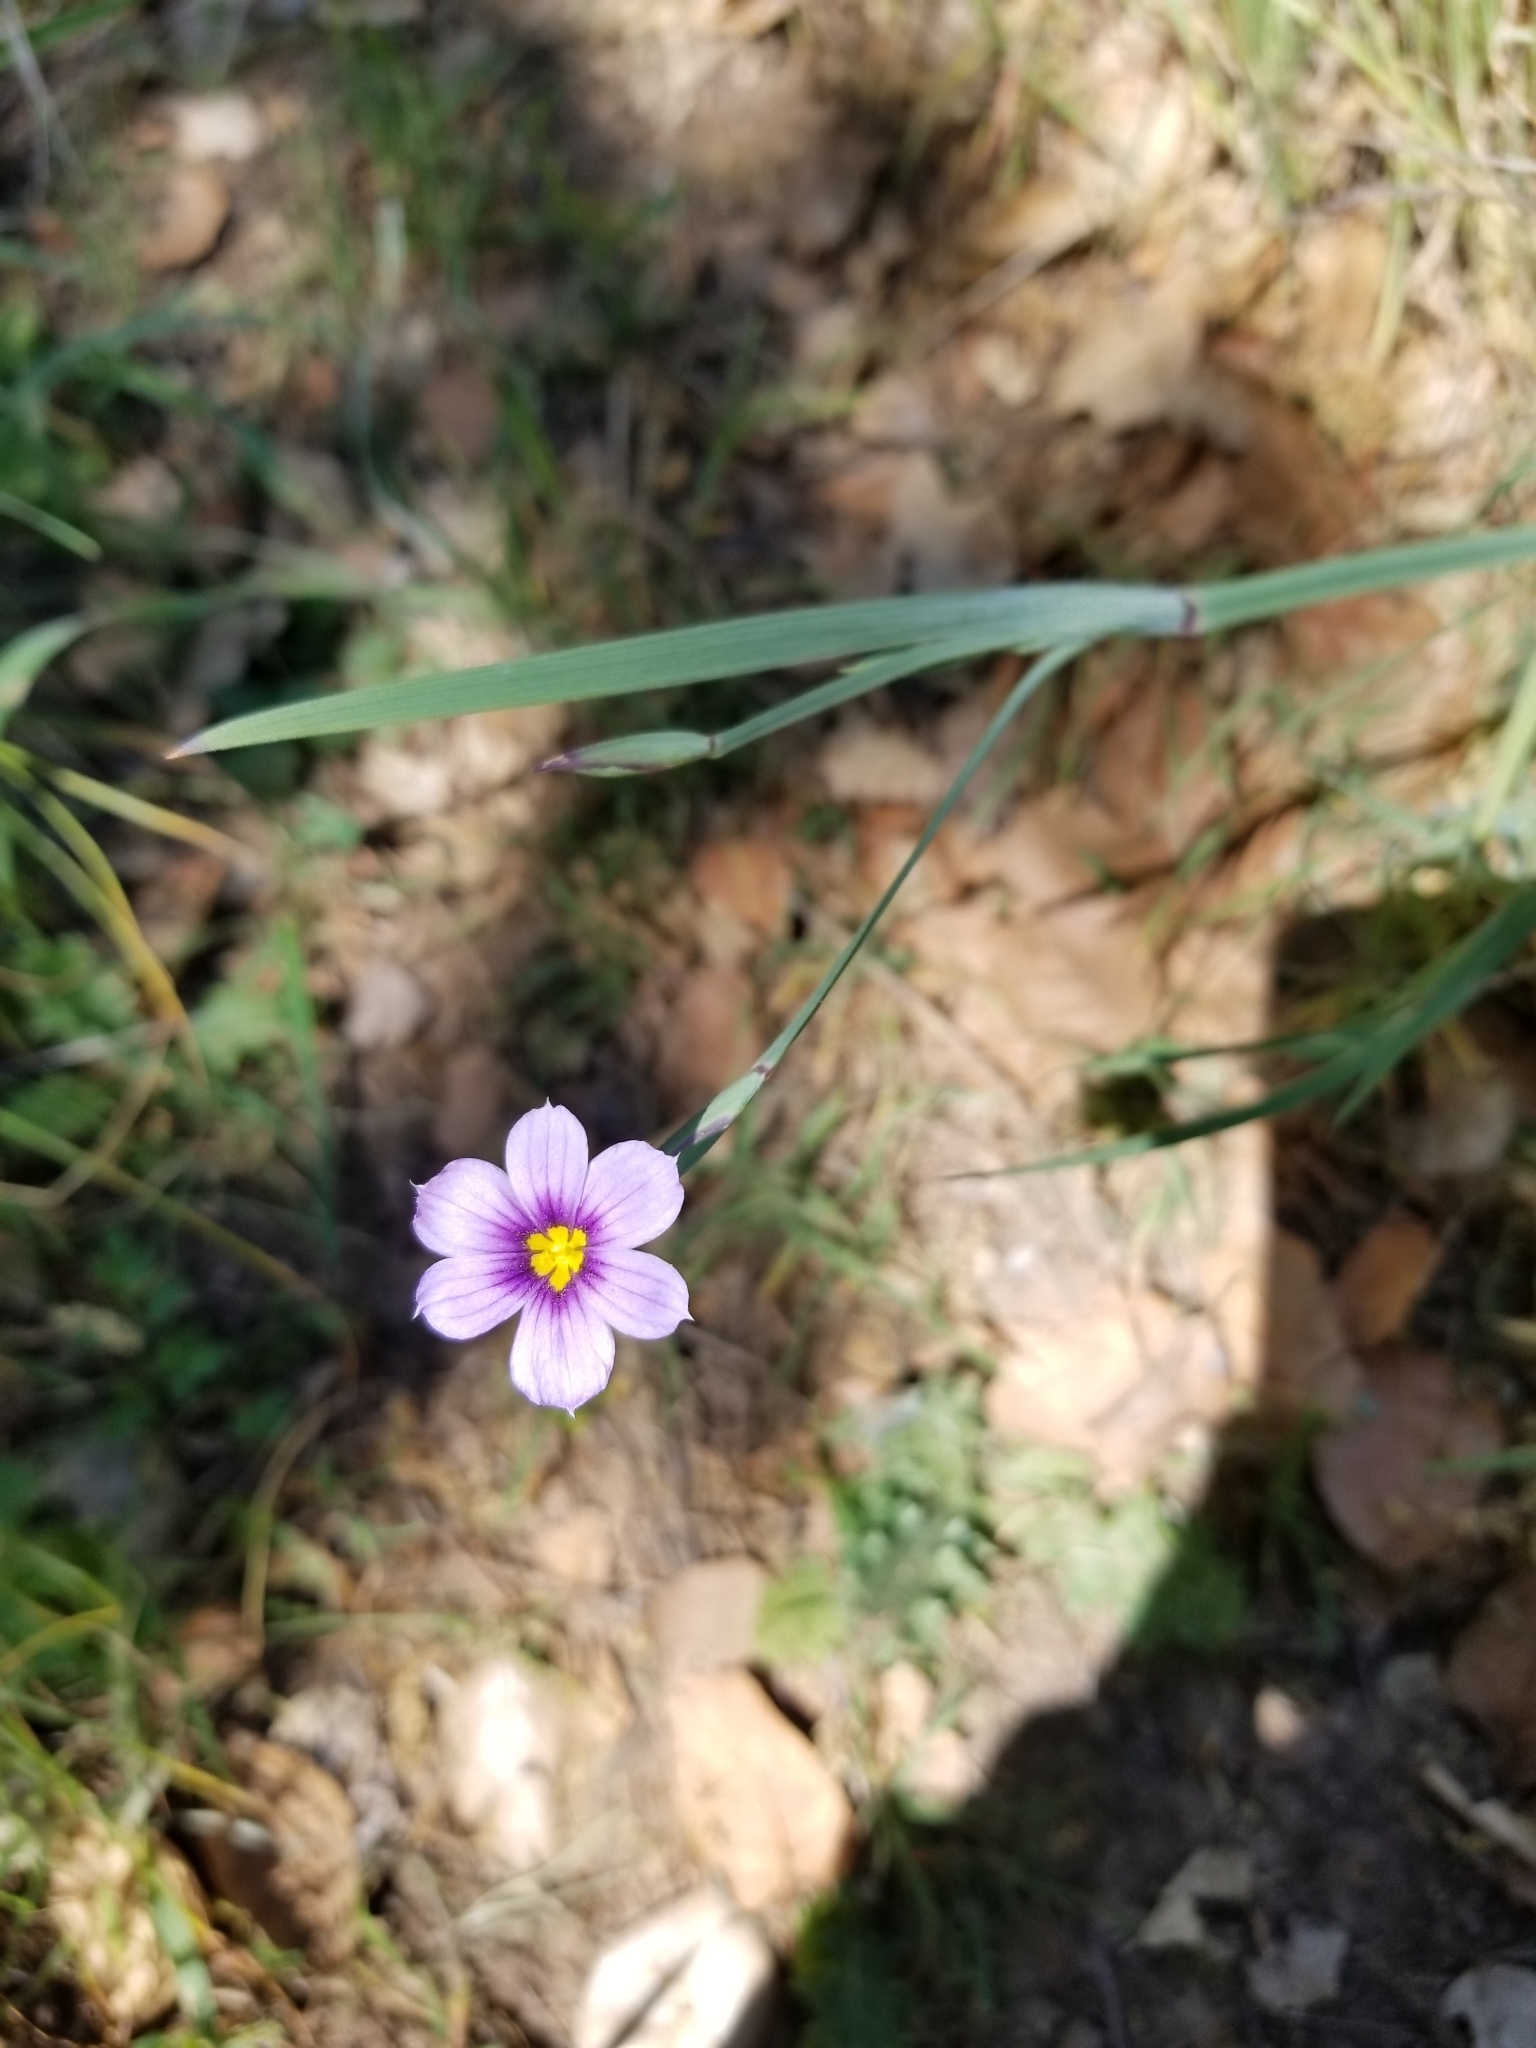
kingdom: Plantae
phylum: Tracheophyta
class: Liliopsida
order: Asparagales
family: Iridaceae
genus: Sisyrinchium
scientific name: Sisyrinchium bellum
